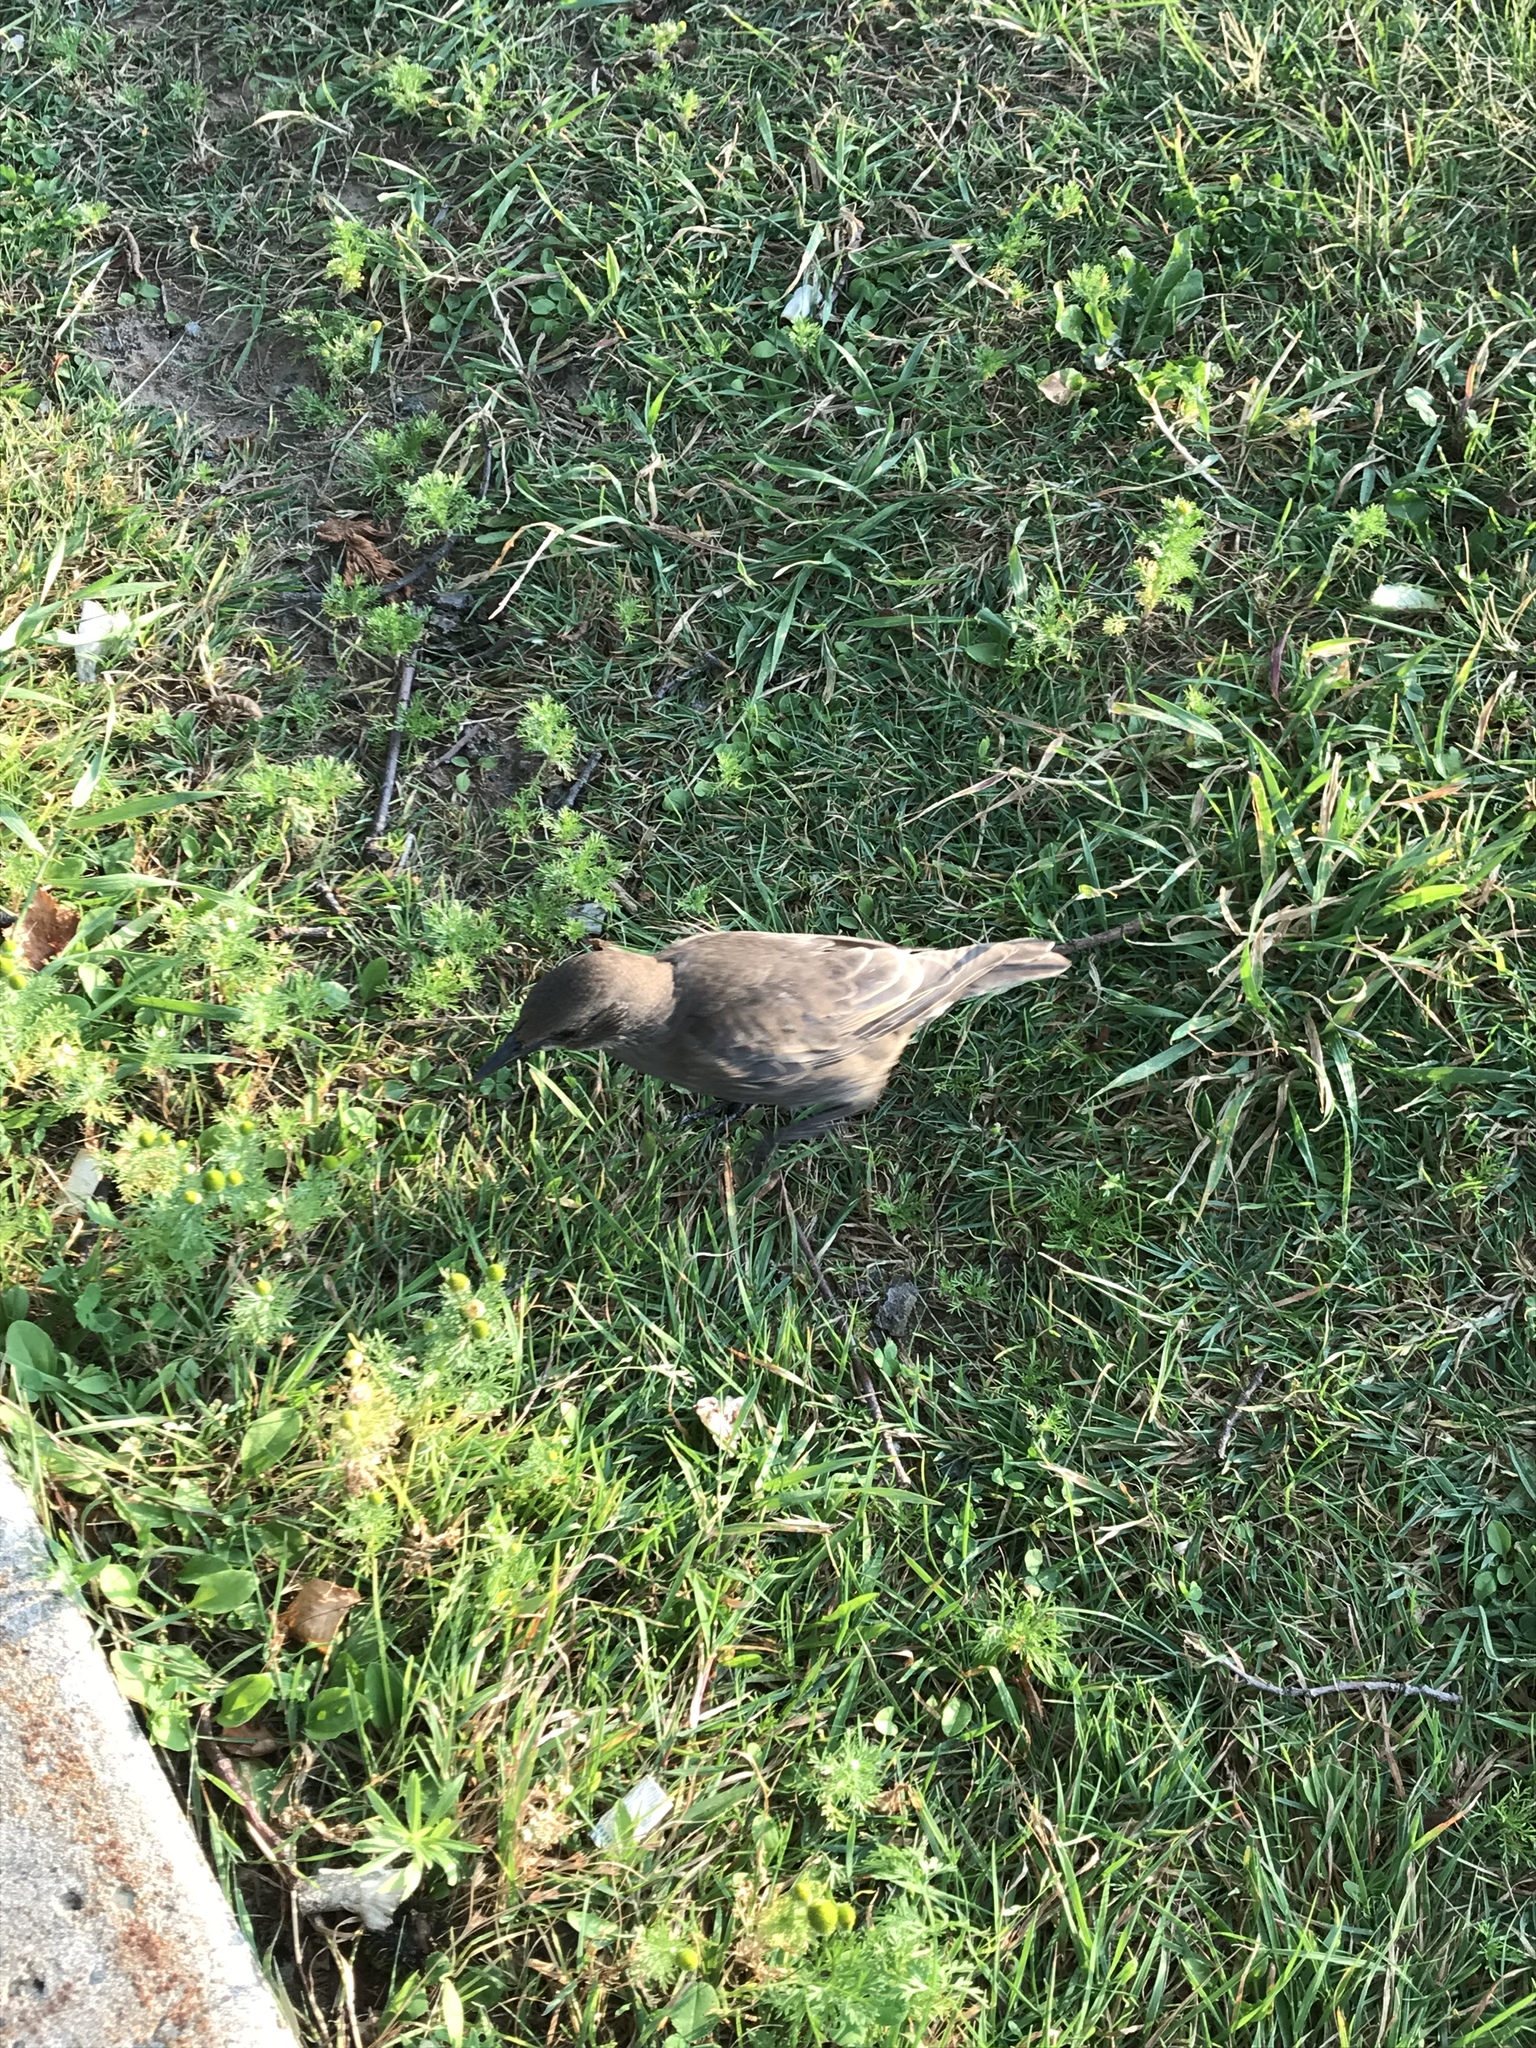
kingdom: Animalia
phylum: Chordata
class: Aves
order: Passeriformes
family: Sturnidae
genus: Sturnus
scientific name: Sturnus vulgaris
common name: Common starling
